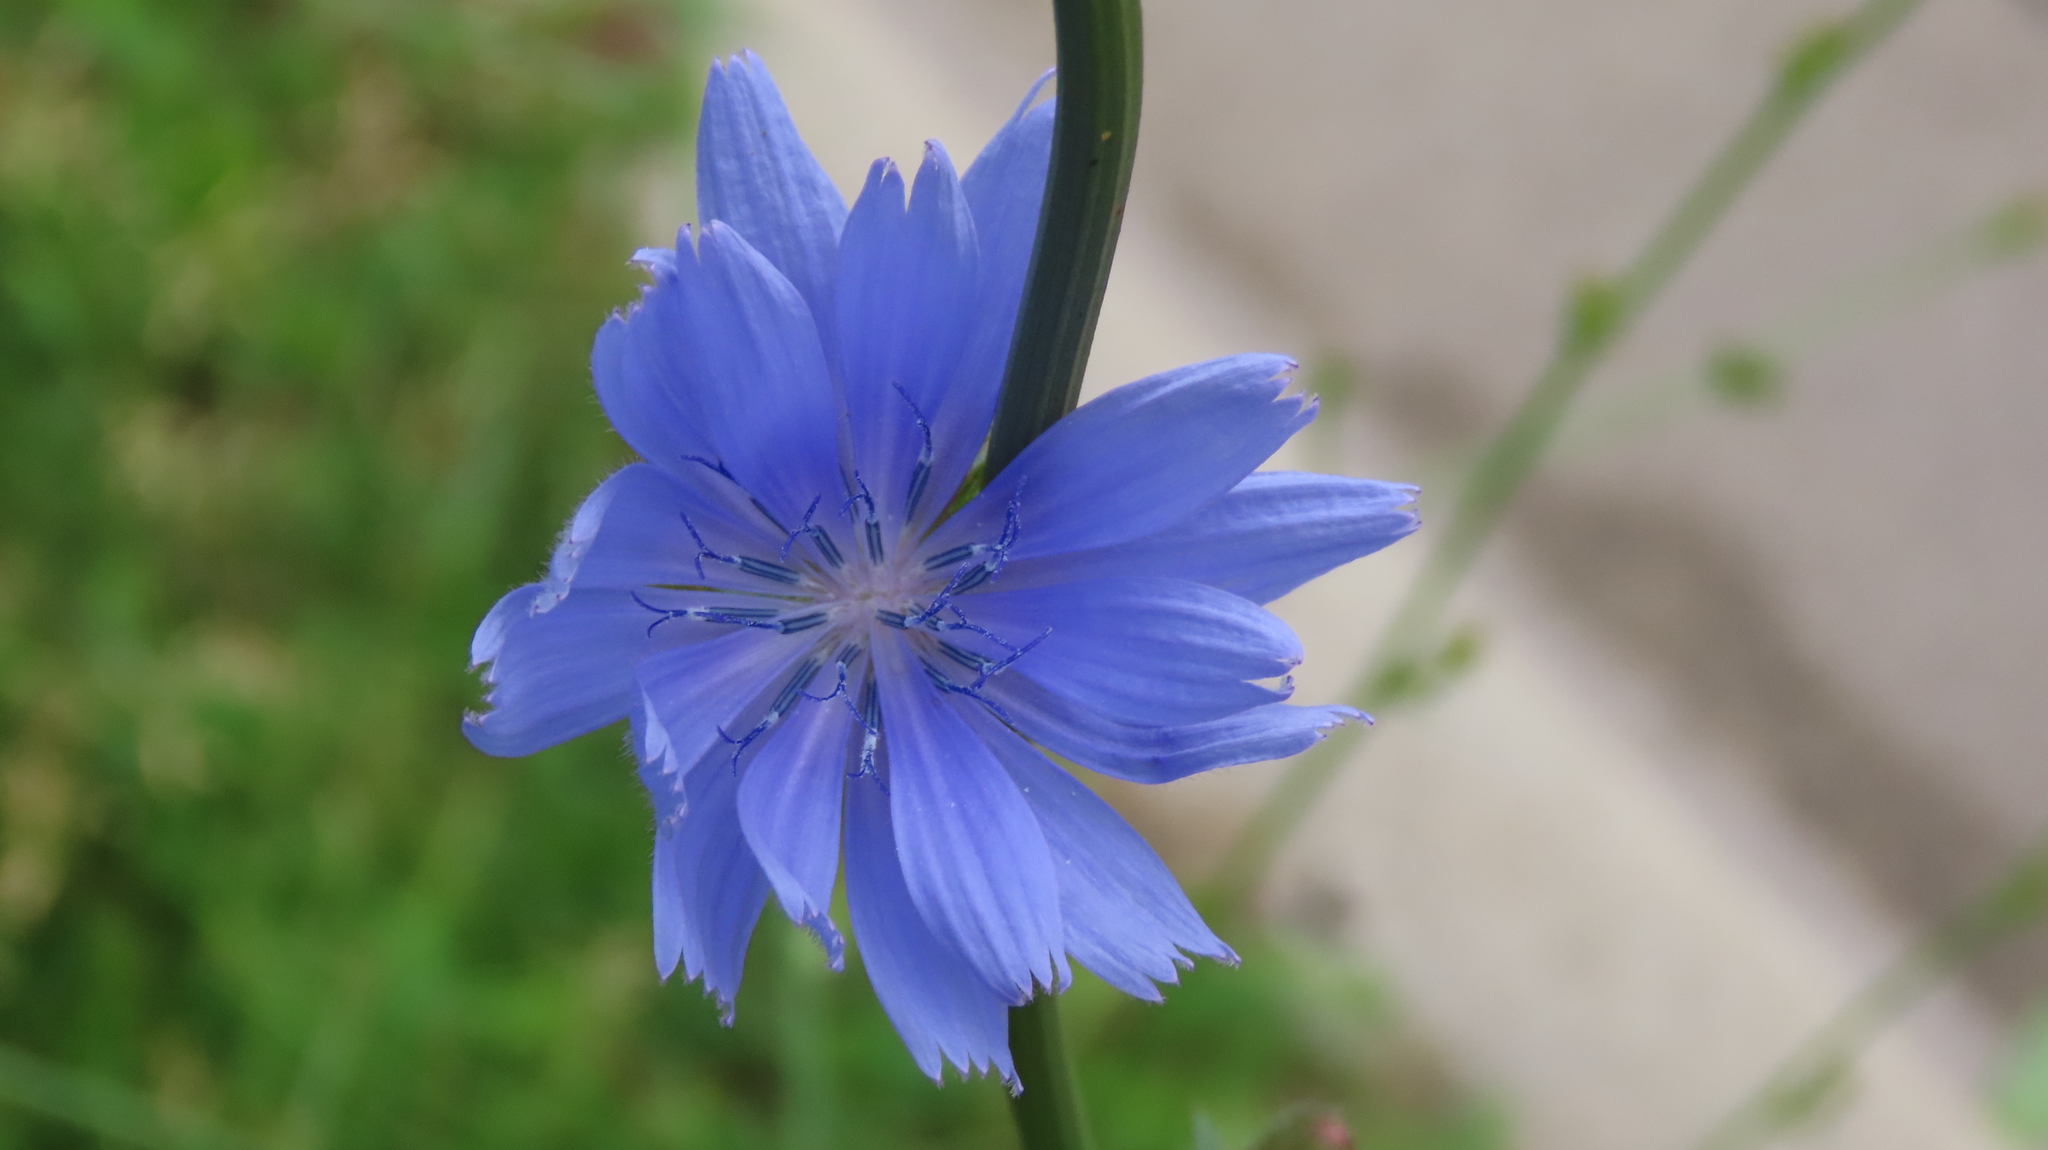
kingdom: Plantae
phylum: Tracheophyta
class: Magnoliopsida
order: Asterales
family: Asteraceae
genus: Cichorium
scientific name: Cichorium intybus
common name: Chicory
